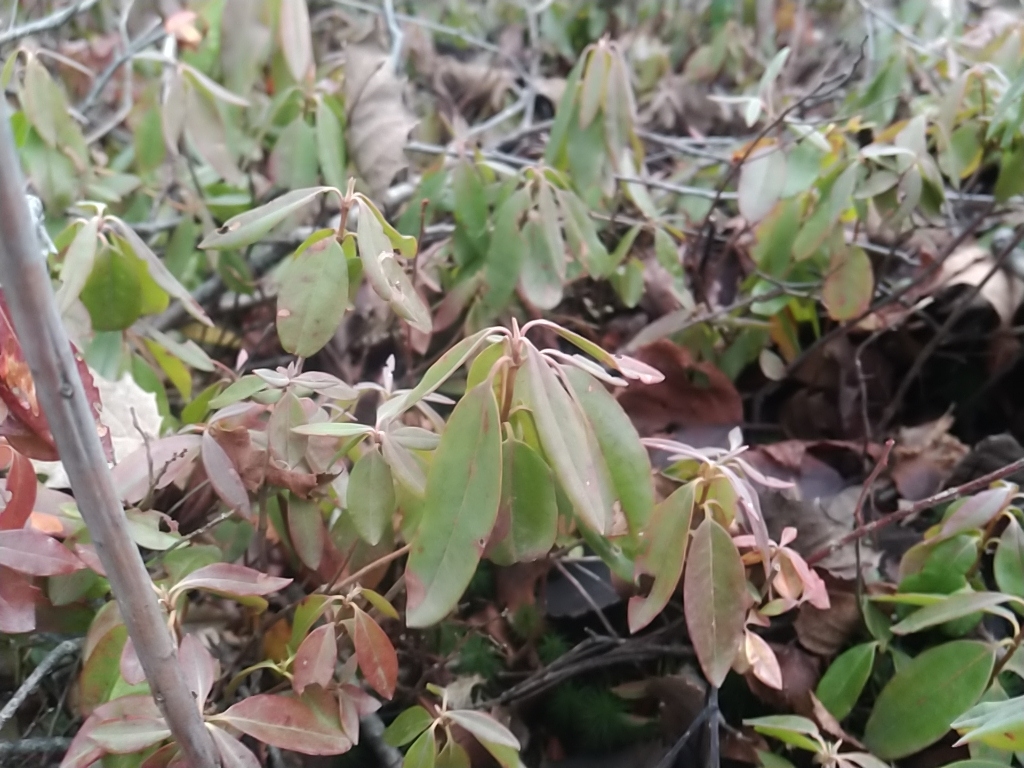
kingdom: Plantae
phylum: Tracheophyta
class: Magnoliopsida
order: Ericales
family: Ericaceae
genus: Kalmia
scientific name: Kalmia angustifolia
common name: Sheep-laurel
